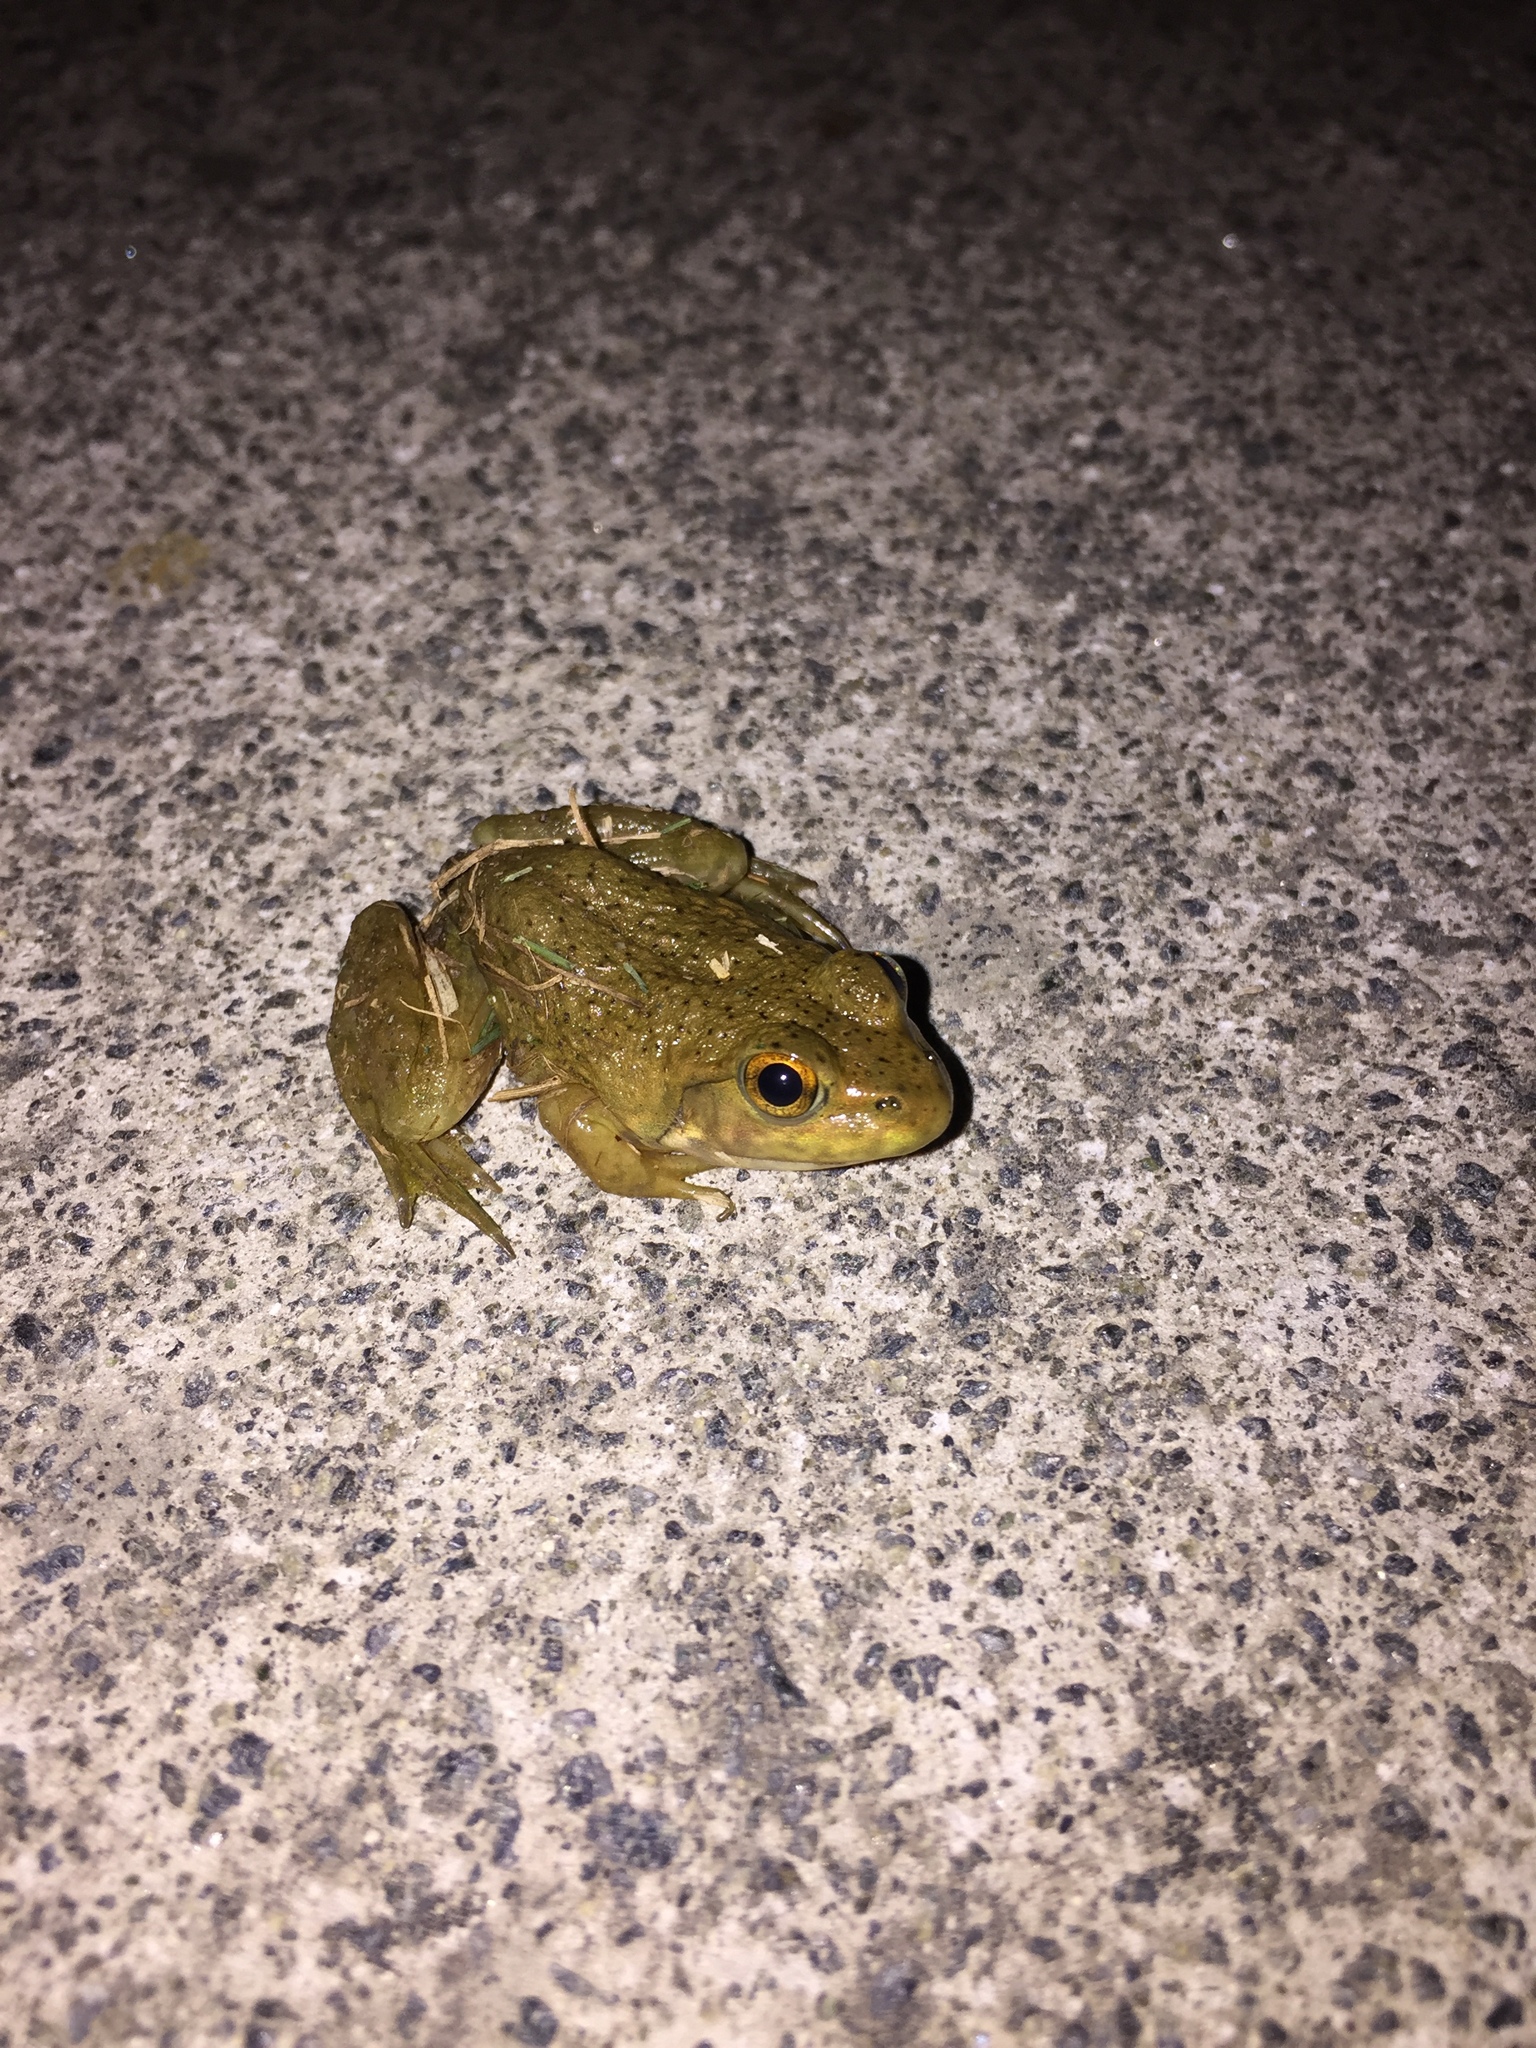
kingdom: Animalia
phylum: Chordata
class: Amphibia
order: Anura
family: Ranidae
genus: Lithobates
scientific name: Lithobates catesbeianus
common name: American bullfrog
